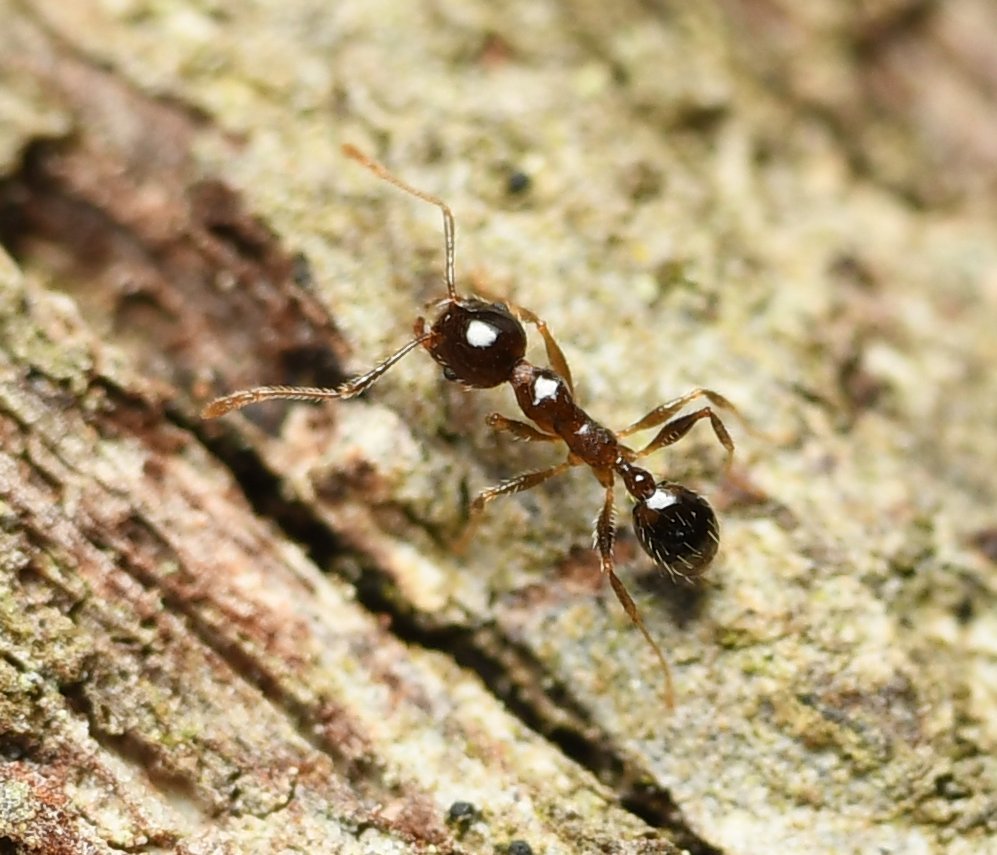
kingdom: Animalia
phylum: Arthropoda
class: Insecta
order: Hymenoptera
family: Formicidae
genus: Pheidole
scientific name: Pheidole megacephala
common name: Bigheaded ant
